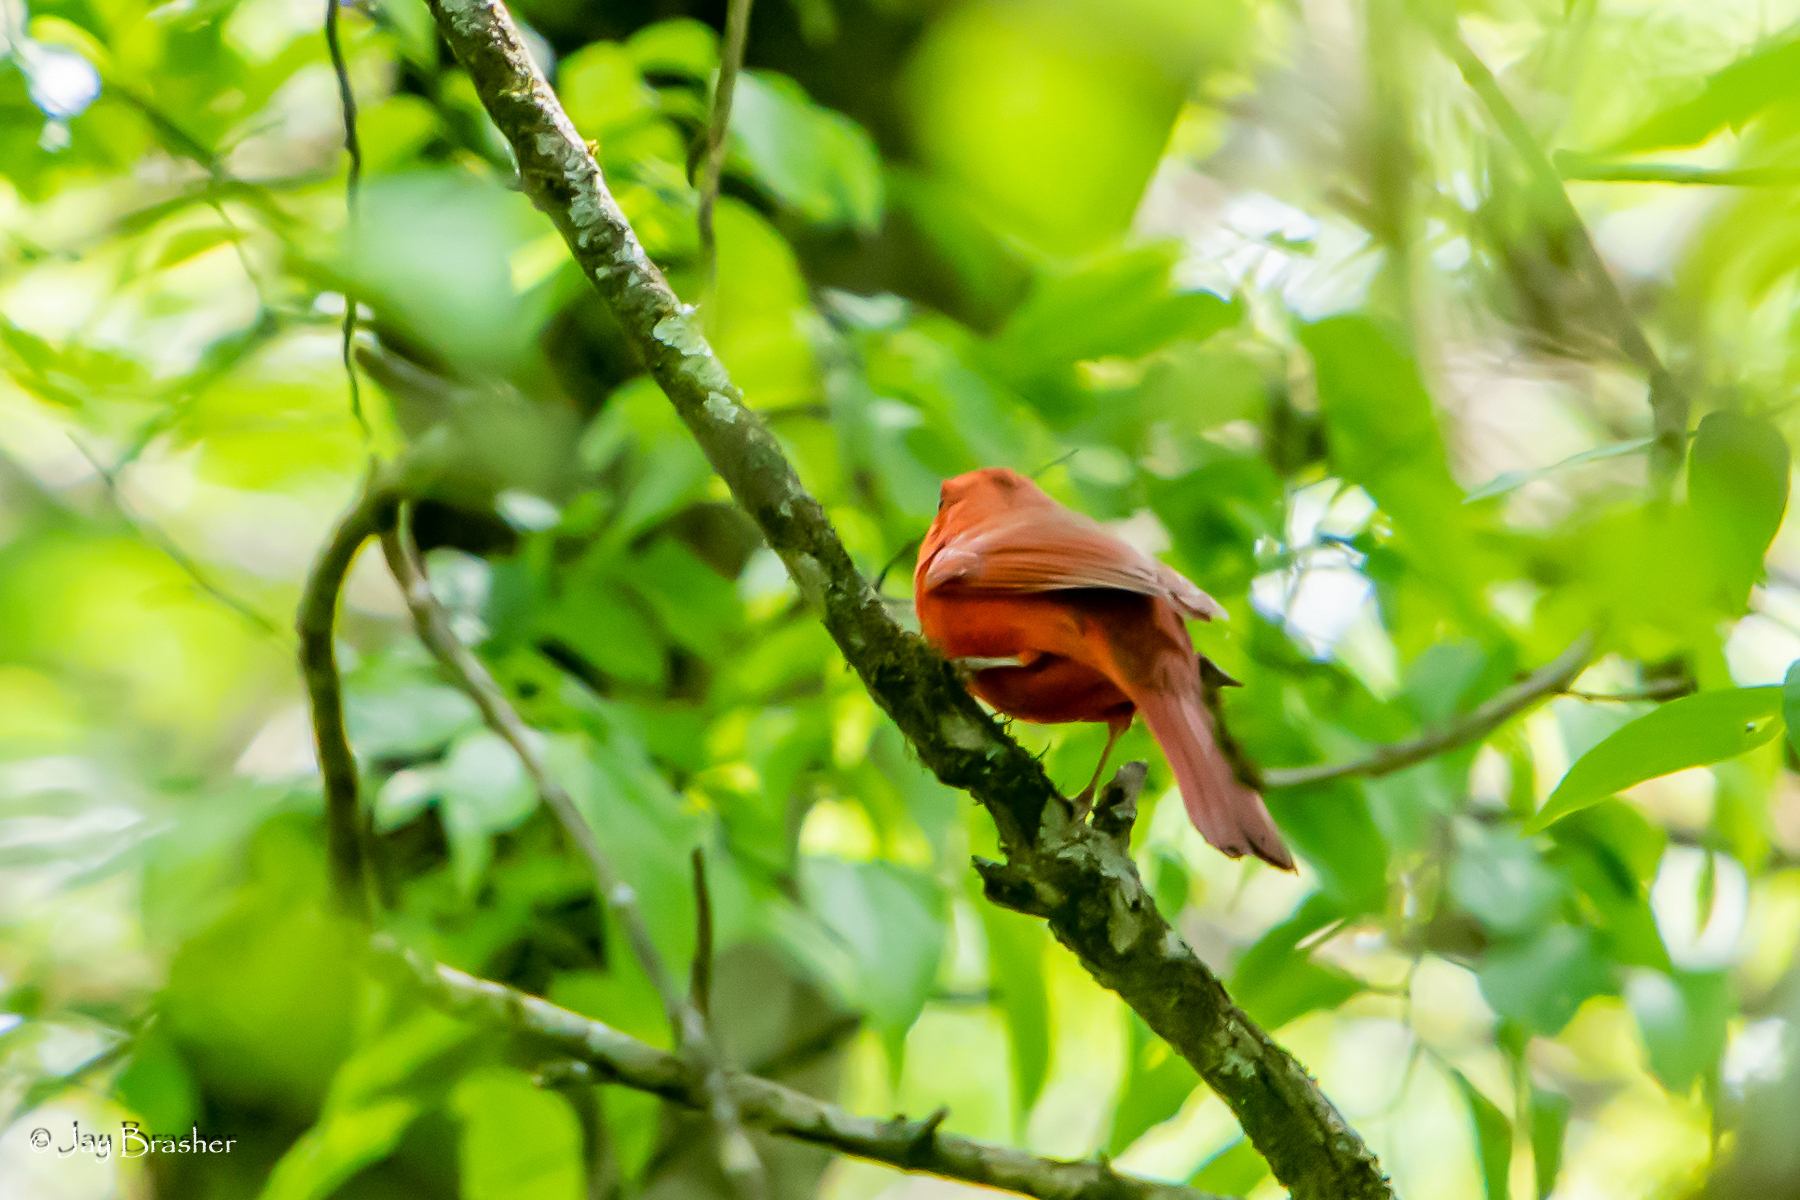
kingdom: Animalia
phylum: Chordata
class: Aves
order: Passeriformes
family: Cardinalidae
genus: Cardinalis
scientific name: Cardinalis cardinalis
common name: Northern cardinal
